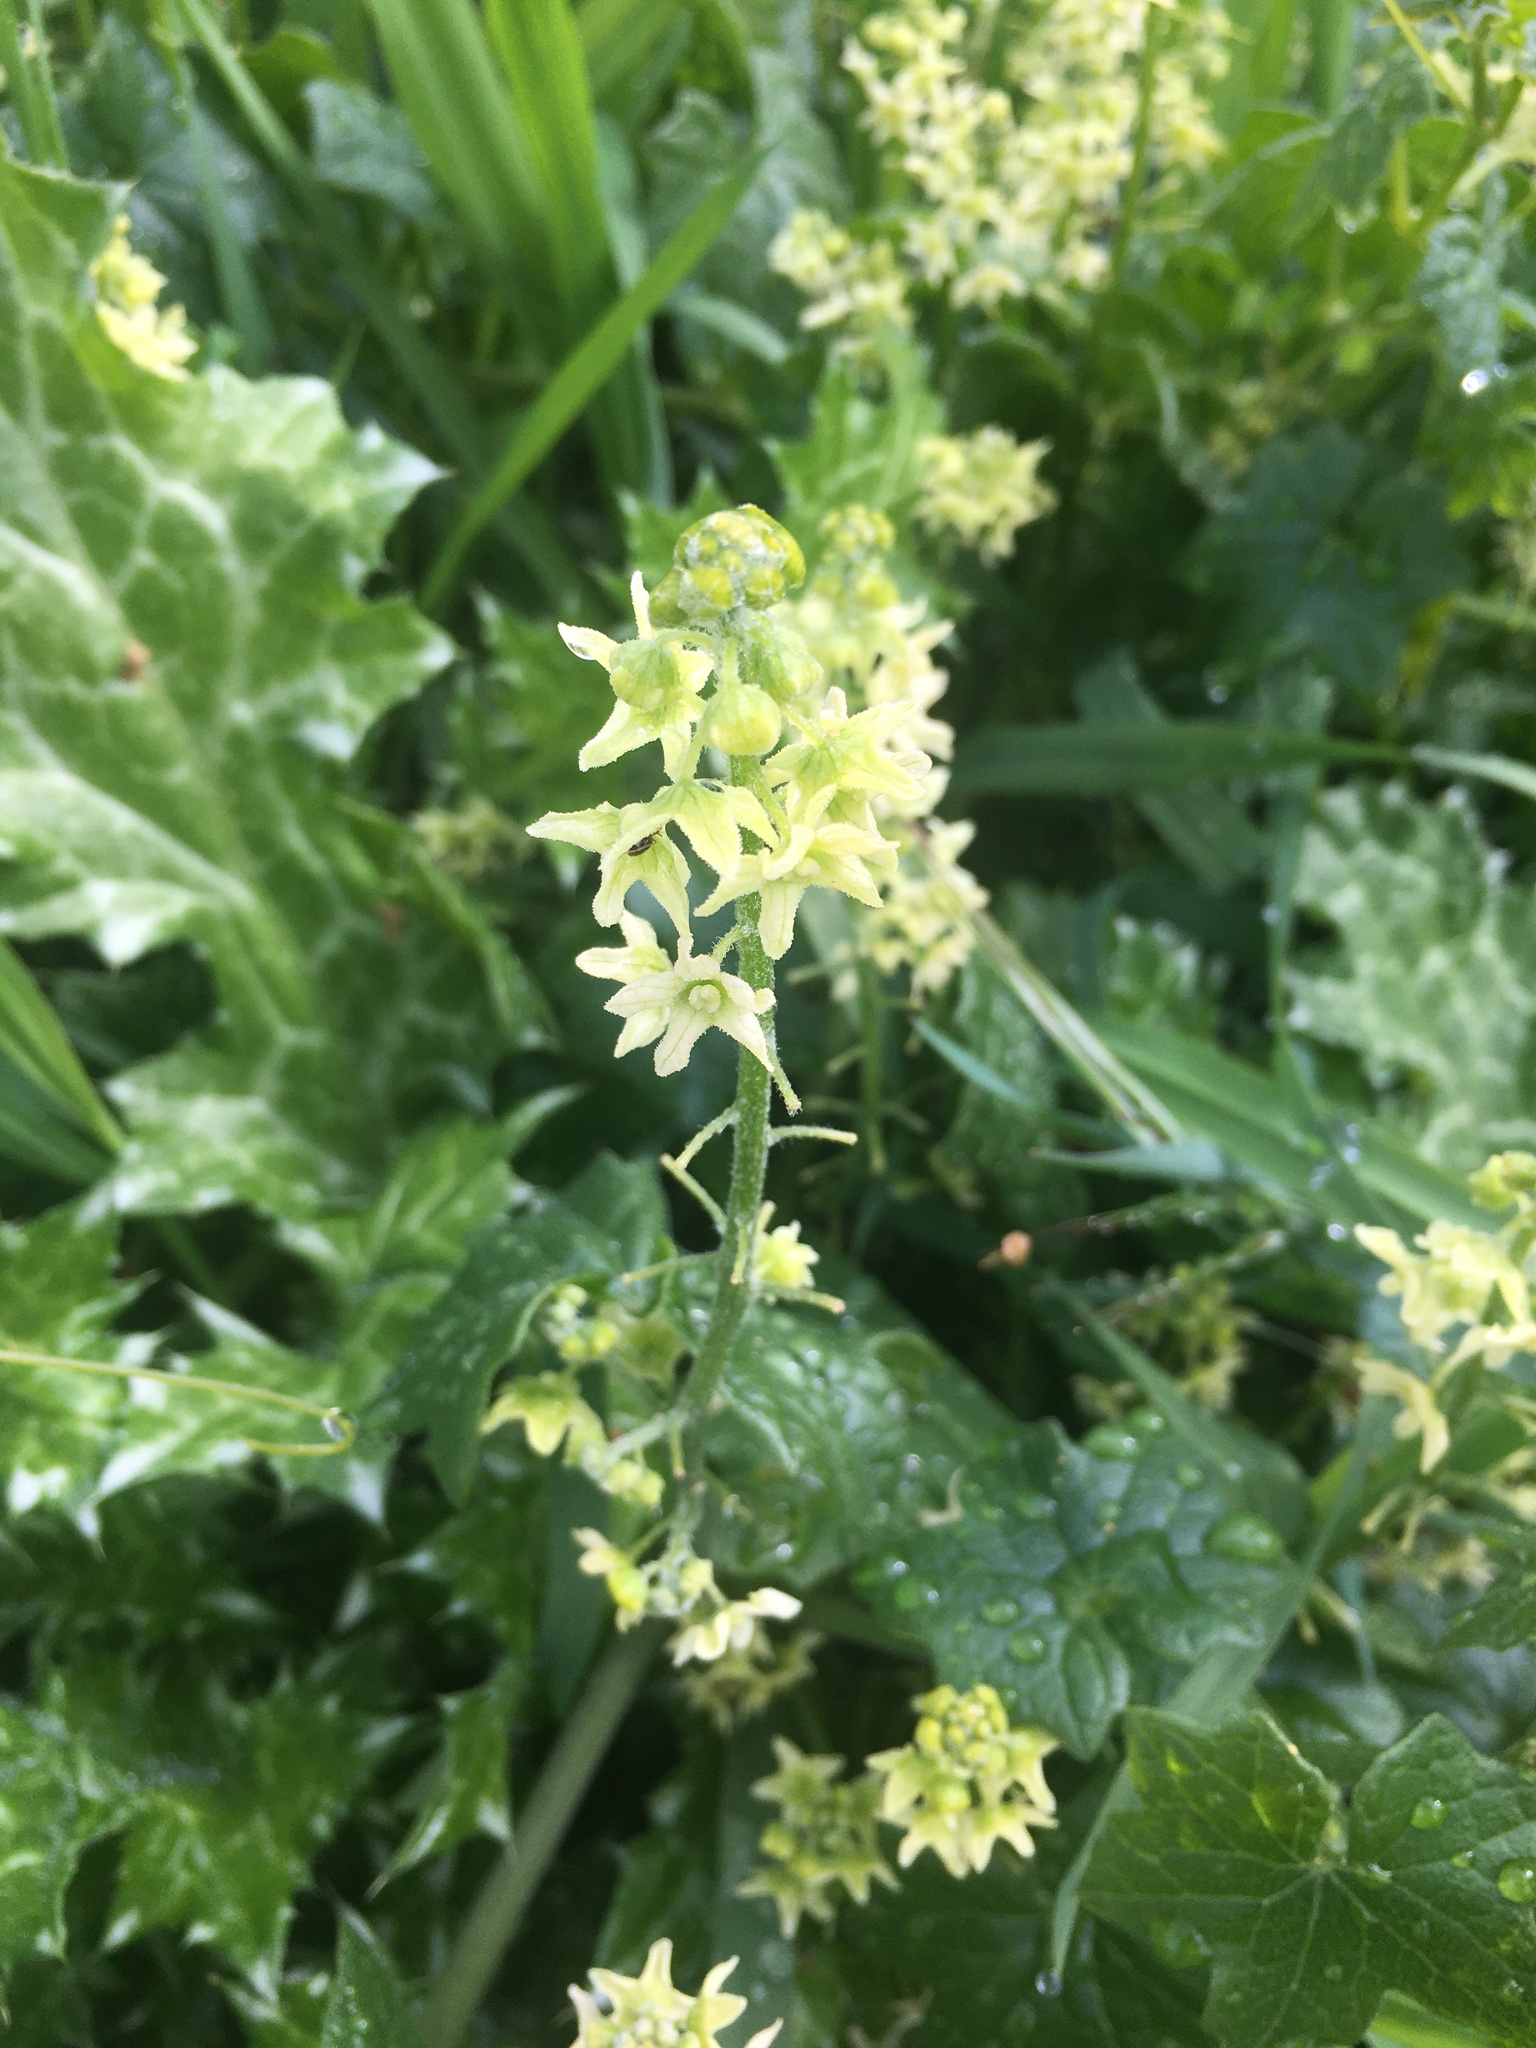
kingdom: Plantae
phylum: Tracheophyta
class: Magnoliopsida
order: Cucurbitales
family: Cucurbitaceae
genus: Marah
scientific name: Marah fabacea
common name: California manroot
